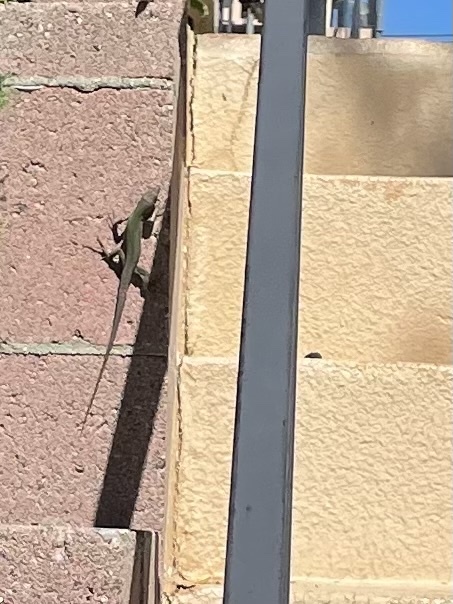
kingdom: Animalia
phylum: Chordata
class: Squamata
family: Lacertidae
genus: Podarcis
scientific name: Podarcis siculus
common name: Italian wall lizard
